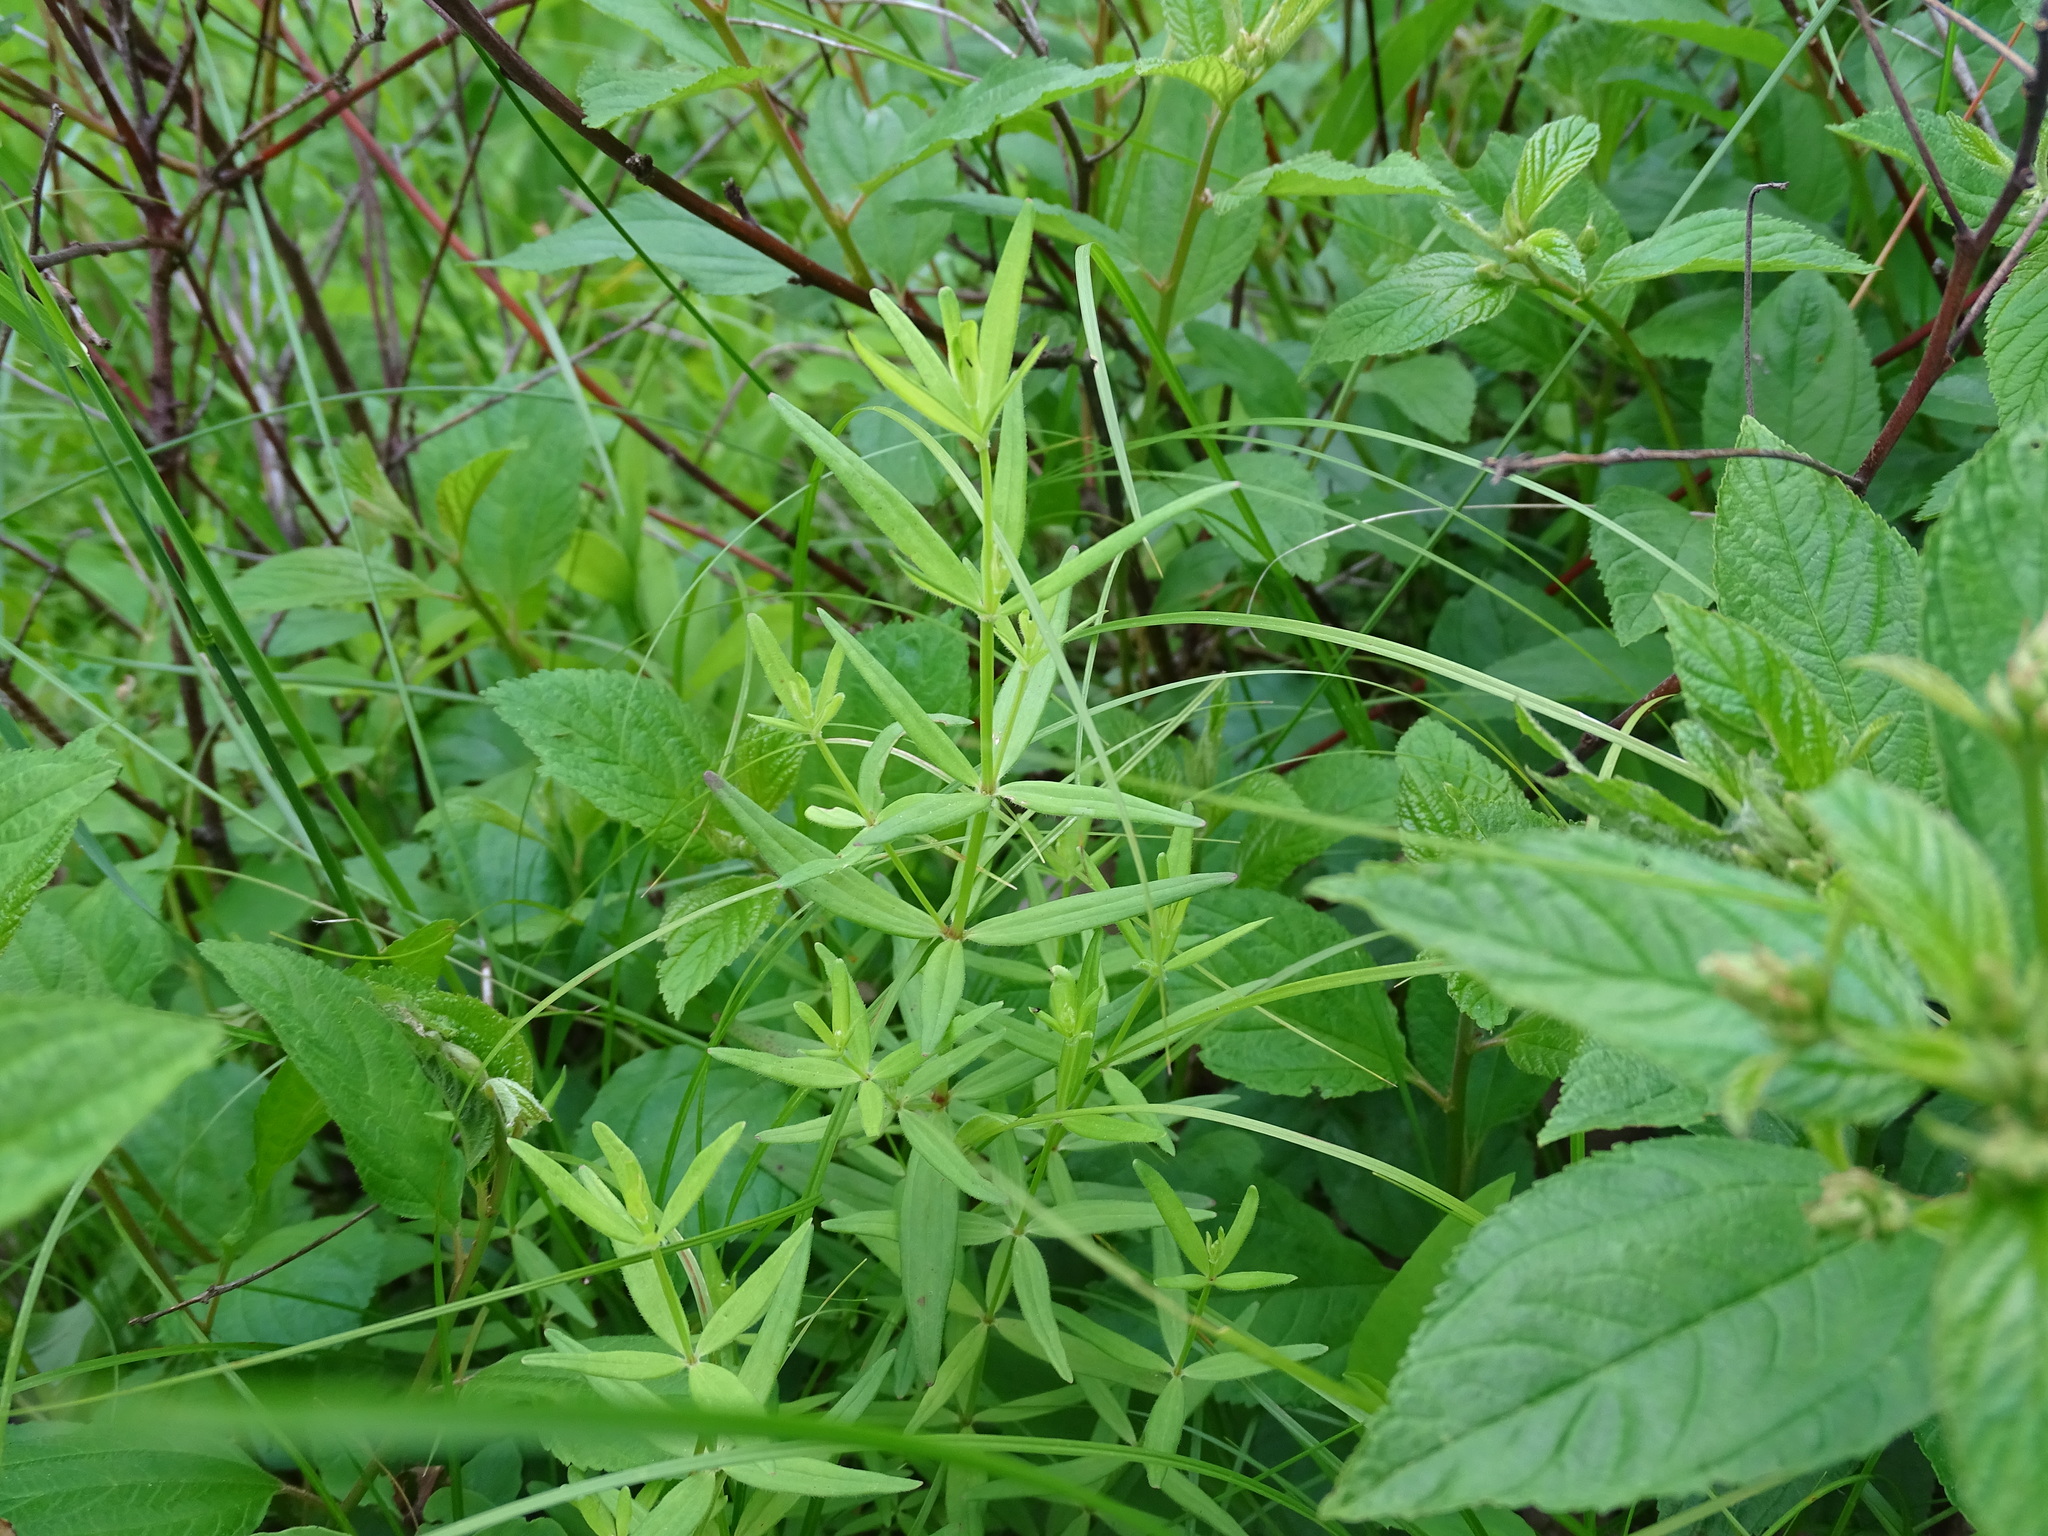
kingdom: Plantae
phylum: Tracheophyta
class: Magnoliopsida
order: Gentianales
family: Rubiaceae
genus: Galium
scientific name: Galium boreale
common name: Northern bedstraw
